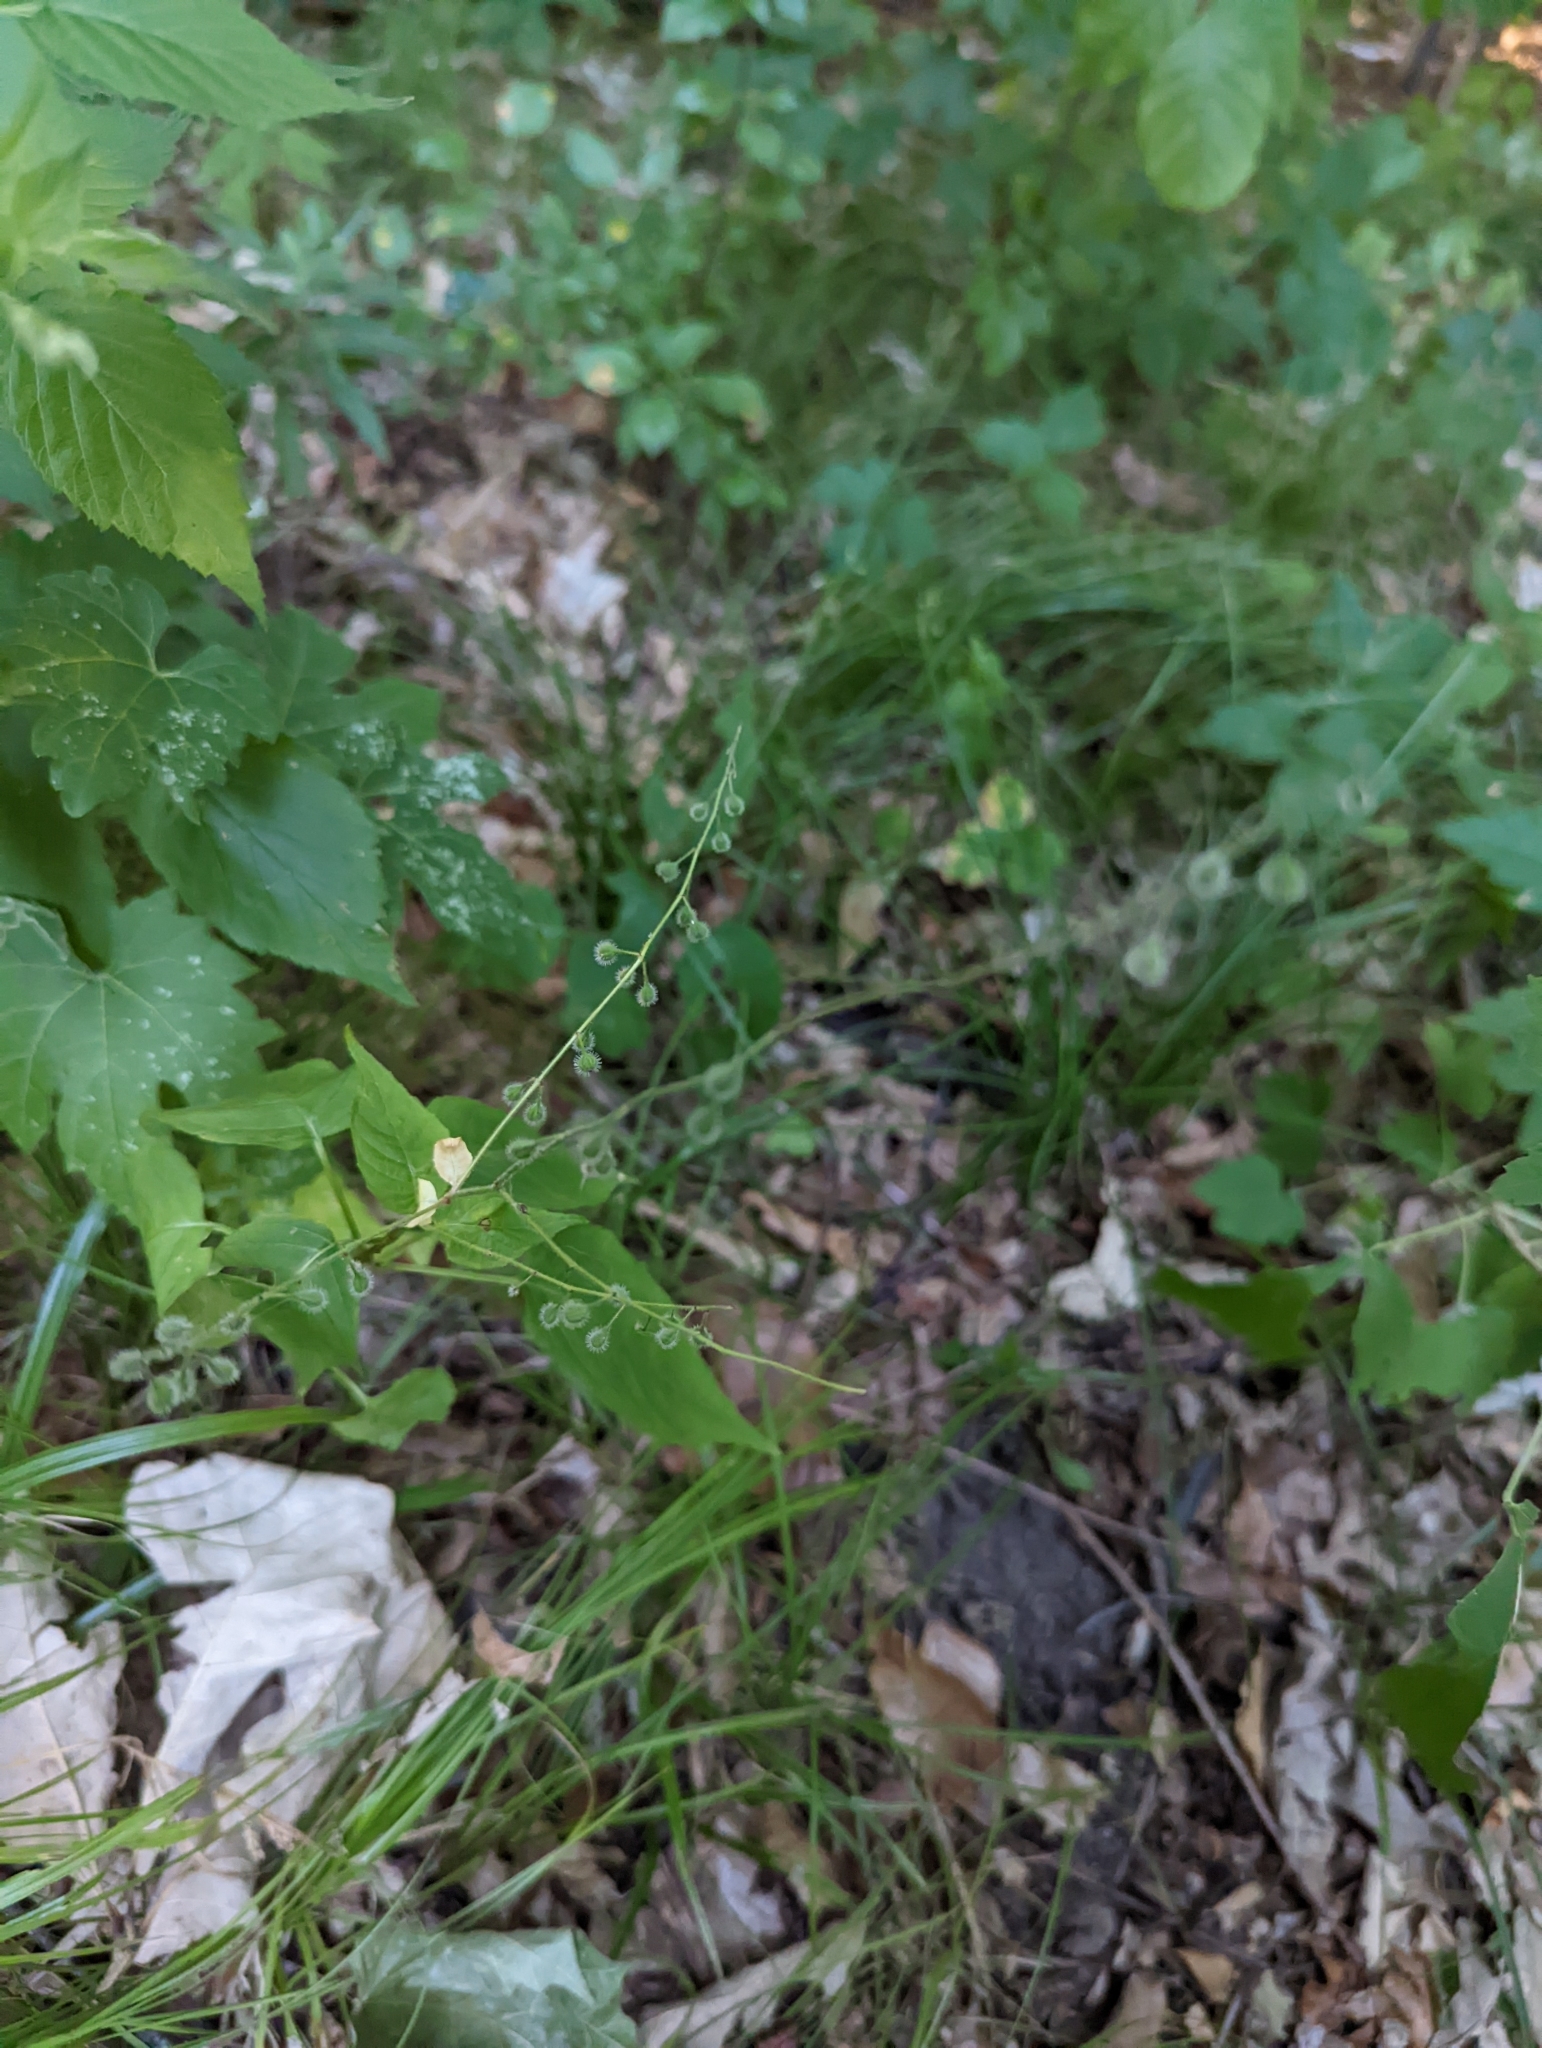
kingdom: Plantae
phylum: Tracheophyta
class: Magnoliopsida
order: Myrtales
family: Onagraceae
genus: Circaea
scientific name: Circaea canadensis
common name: Broad-leaved enchanter's nightshade
